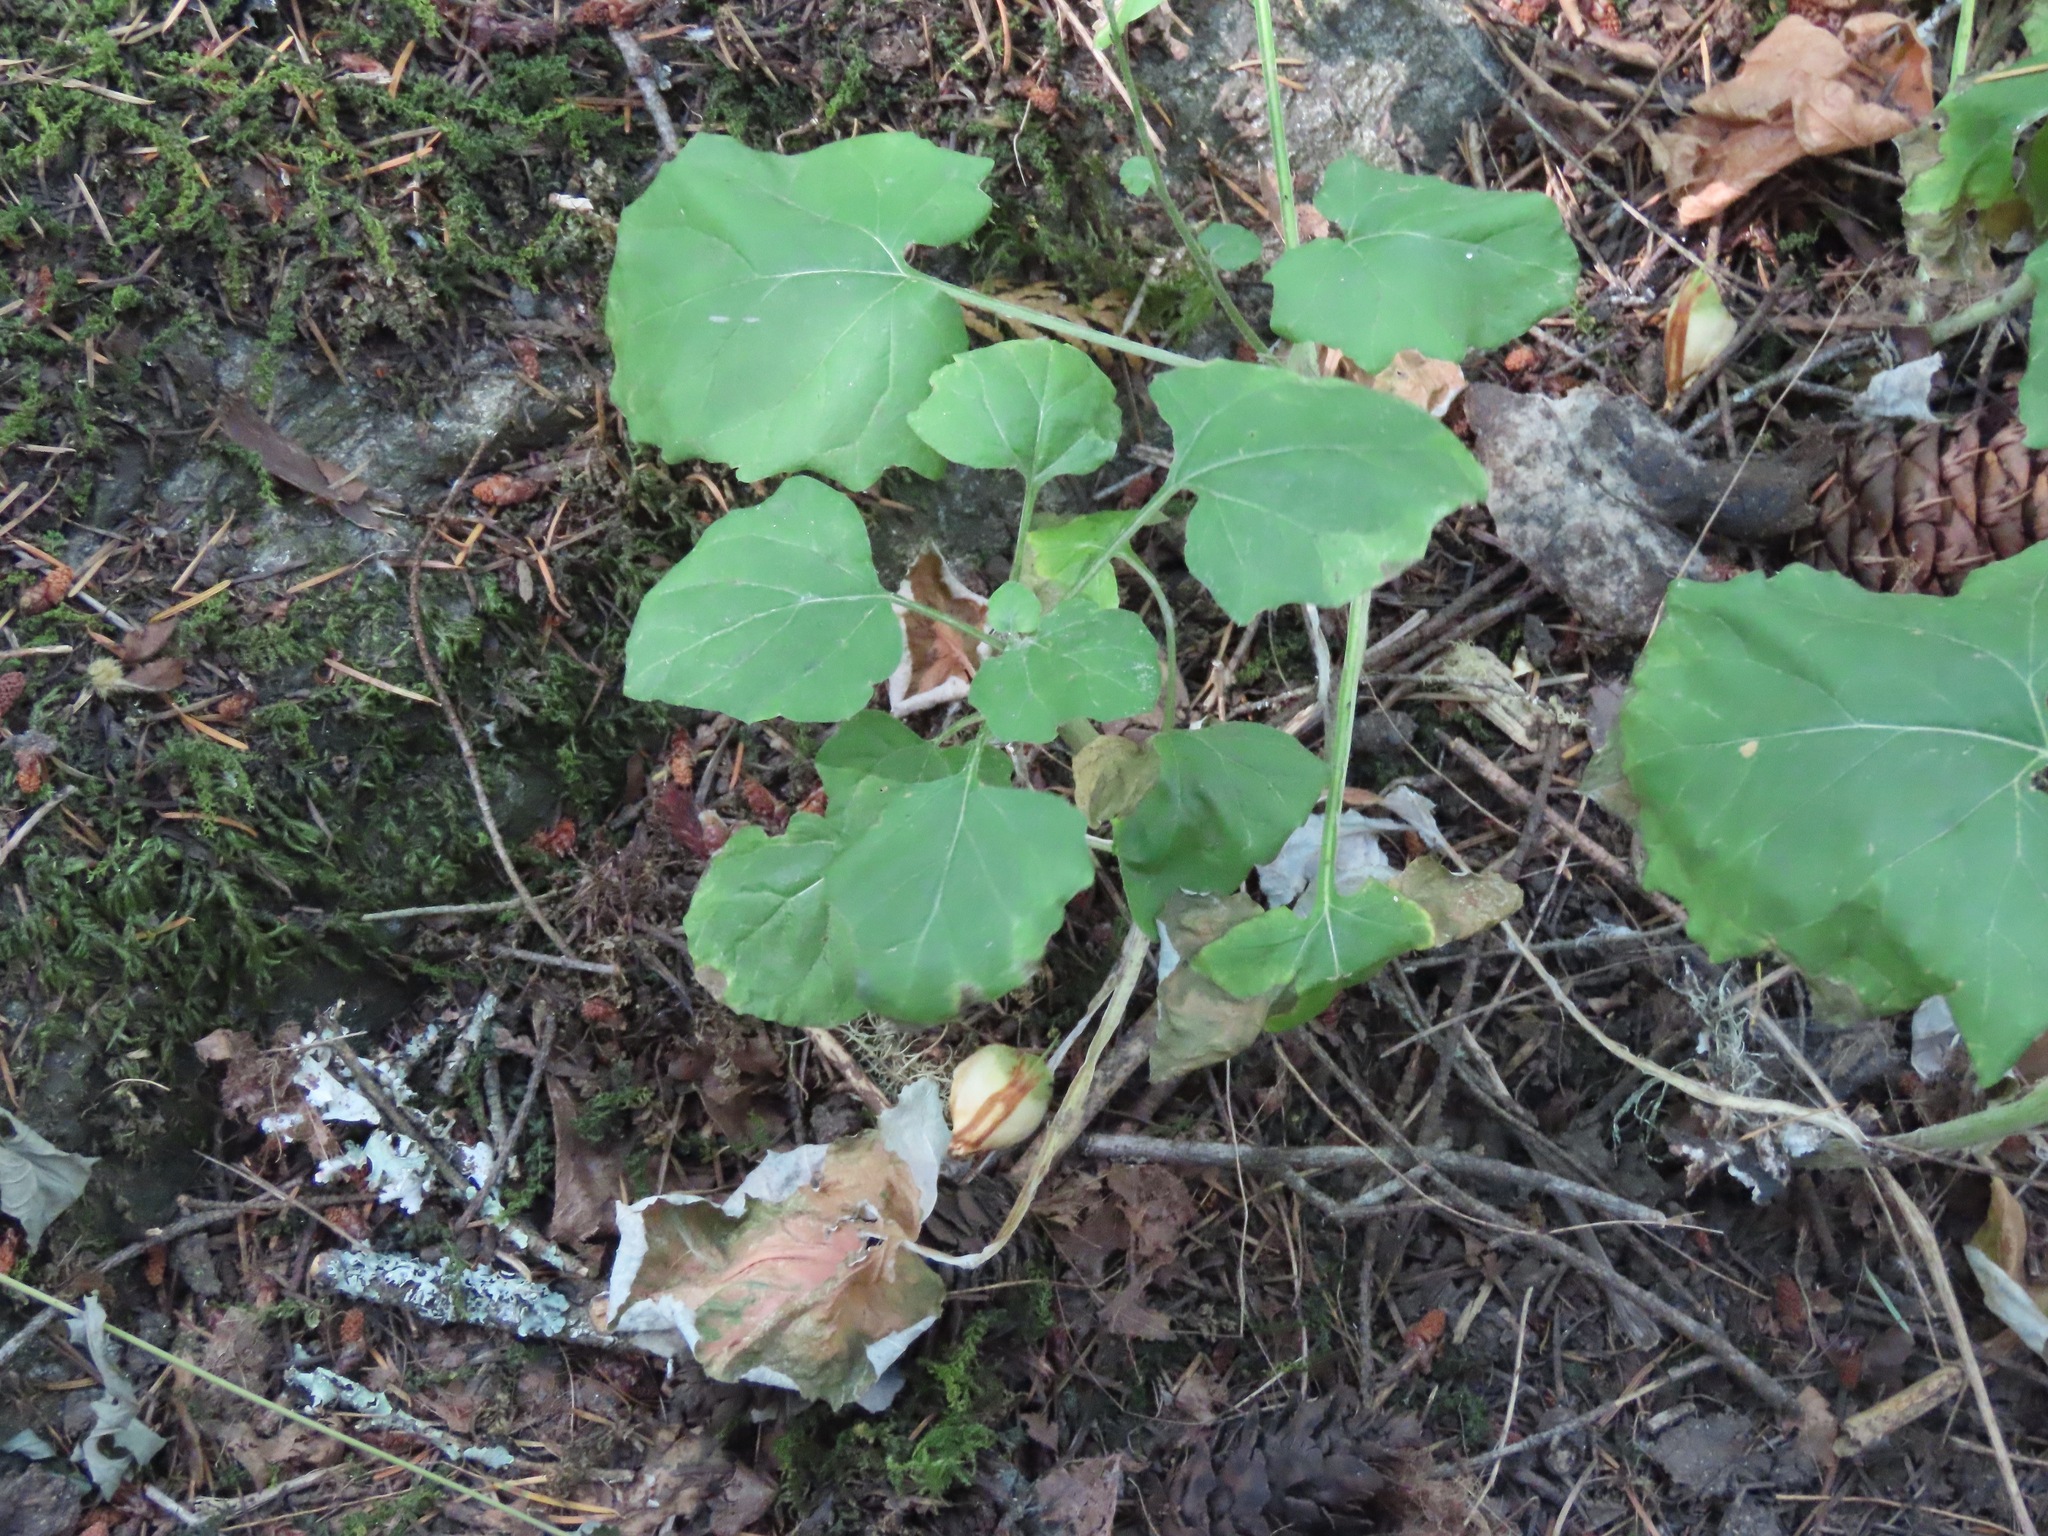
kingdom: Plantae
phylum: Tracheophyta
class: Magnoliopsida
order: Asterales
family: Asteraceae
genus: Adenocaulon
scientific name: Adenocaulon bicolor
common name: Trailplant
